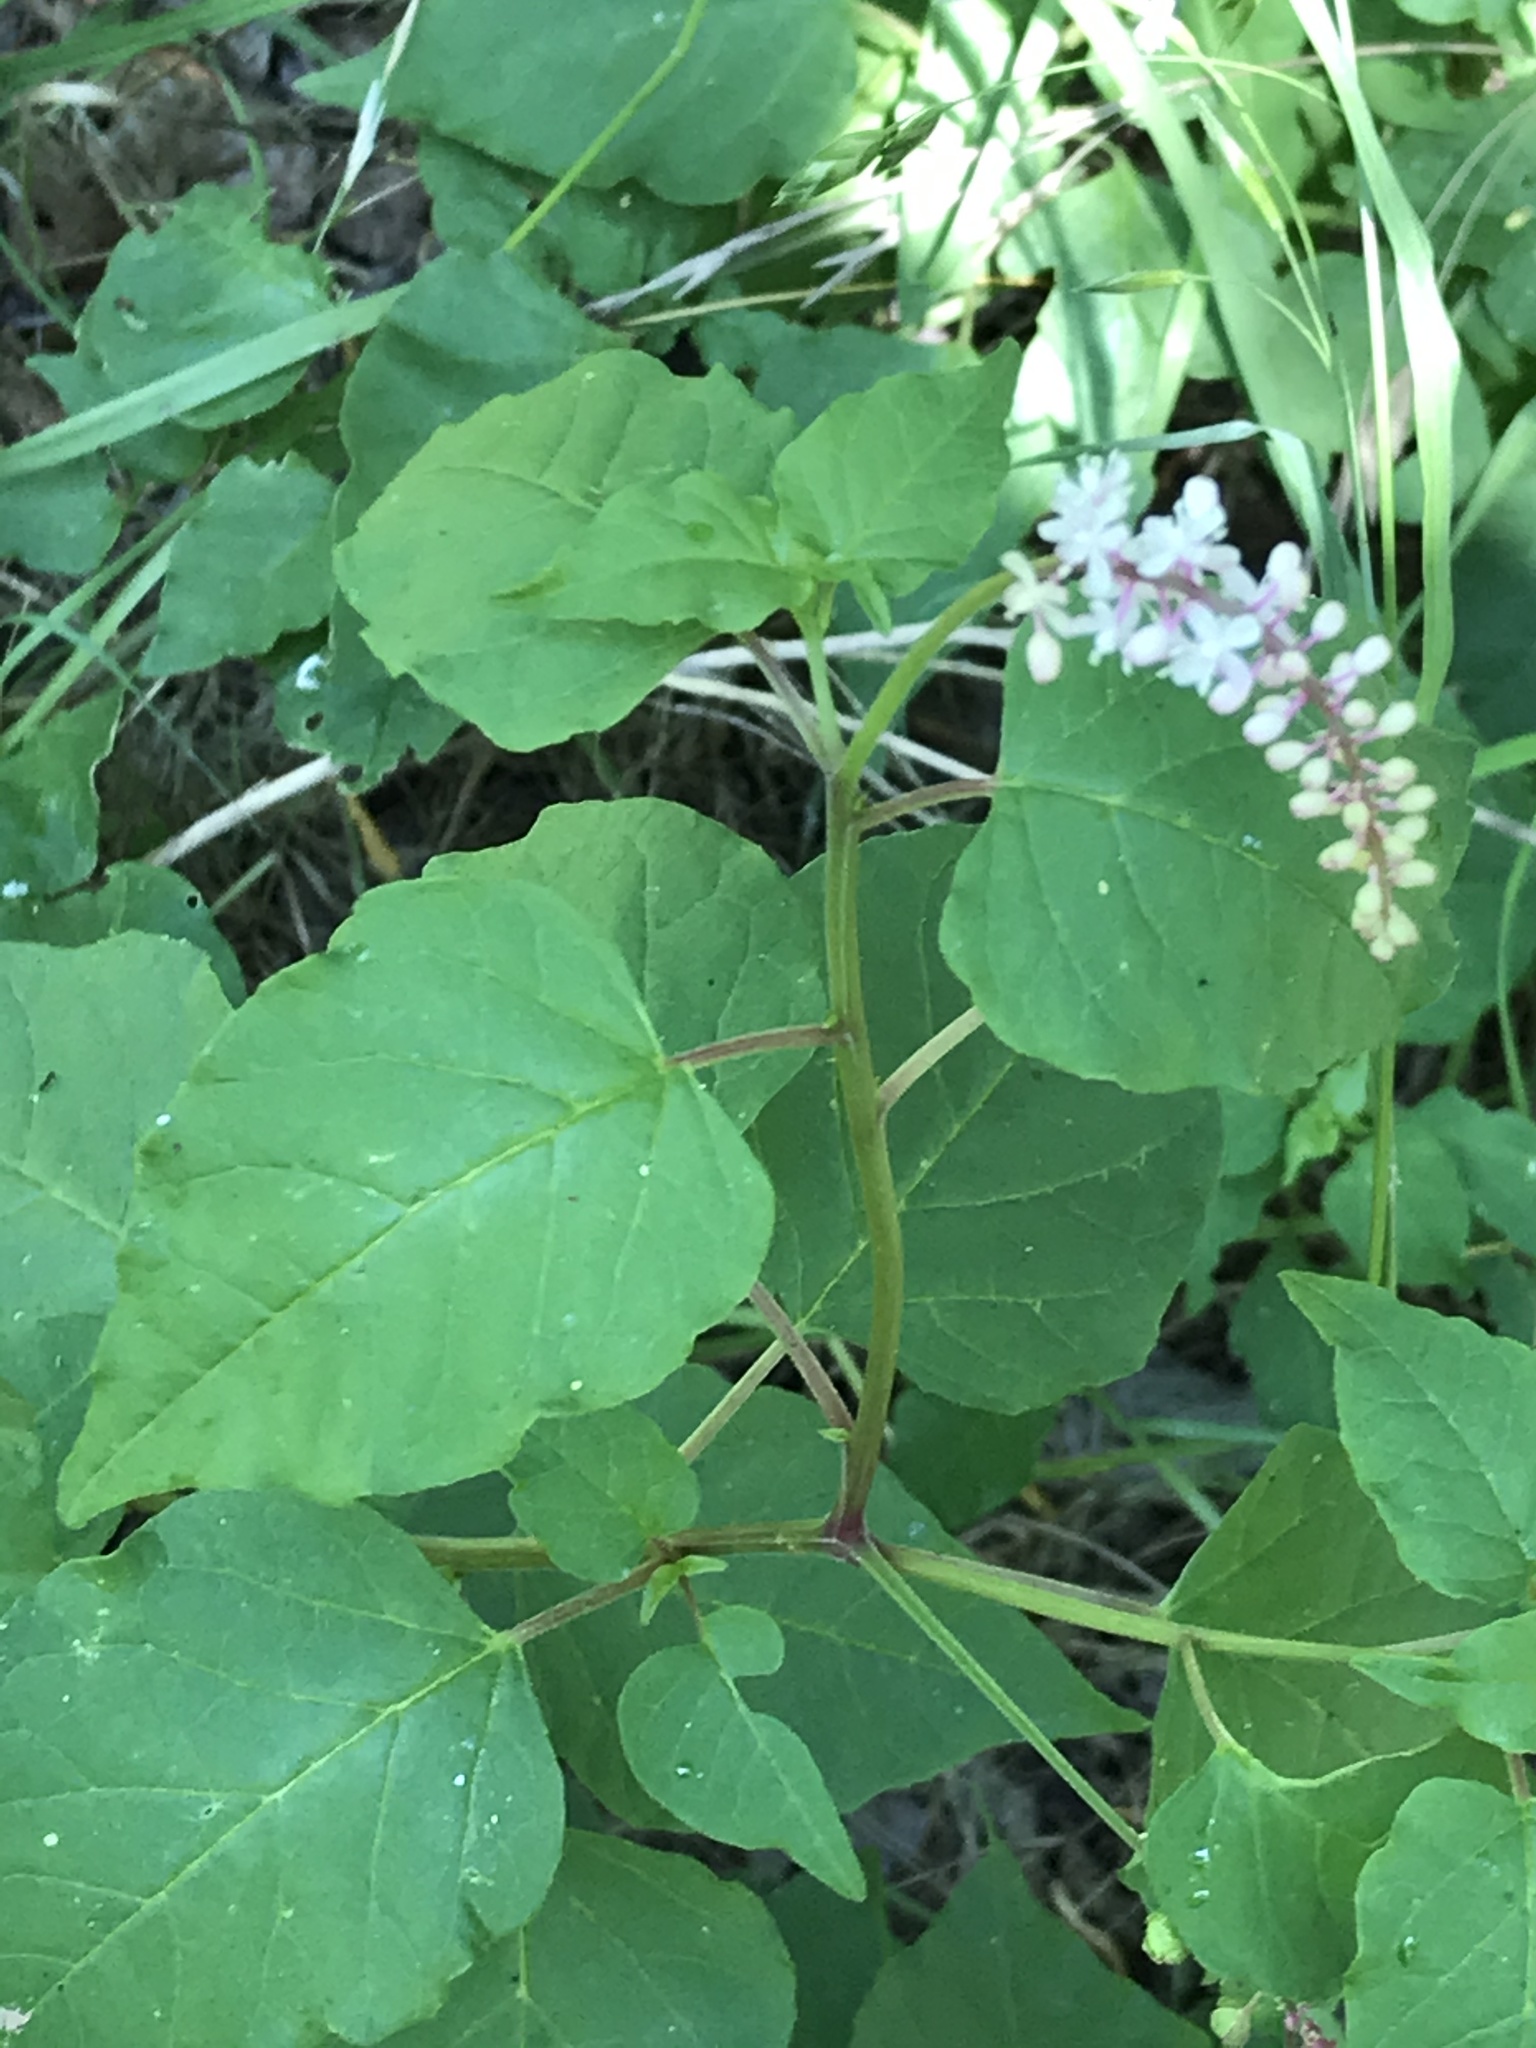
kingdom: Plantae
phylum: Tracheophyta
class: Magnoliopsida
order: Caryophyllales
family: Phytolaccaceae
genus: Rivina
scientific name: Rivina humilis
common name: Rougeplant
